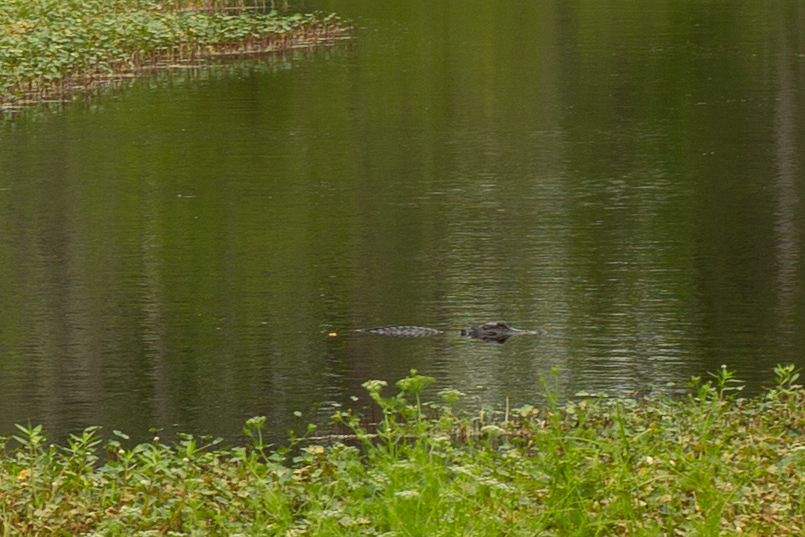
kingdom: Animalia
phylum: Chordata
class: Crocodylia
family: Alligatoridae
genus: Alligator
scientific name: Alligator mississippiensis
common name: American alligator
